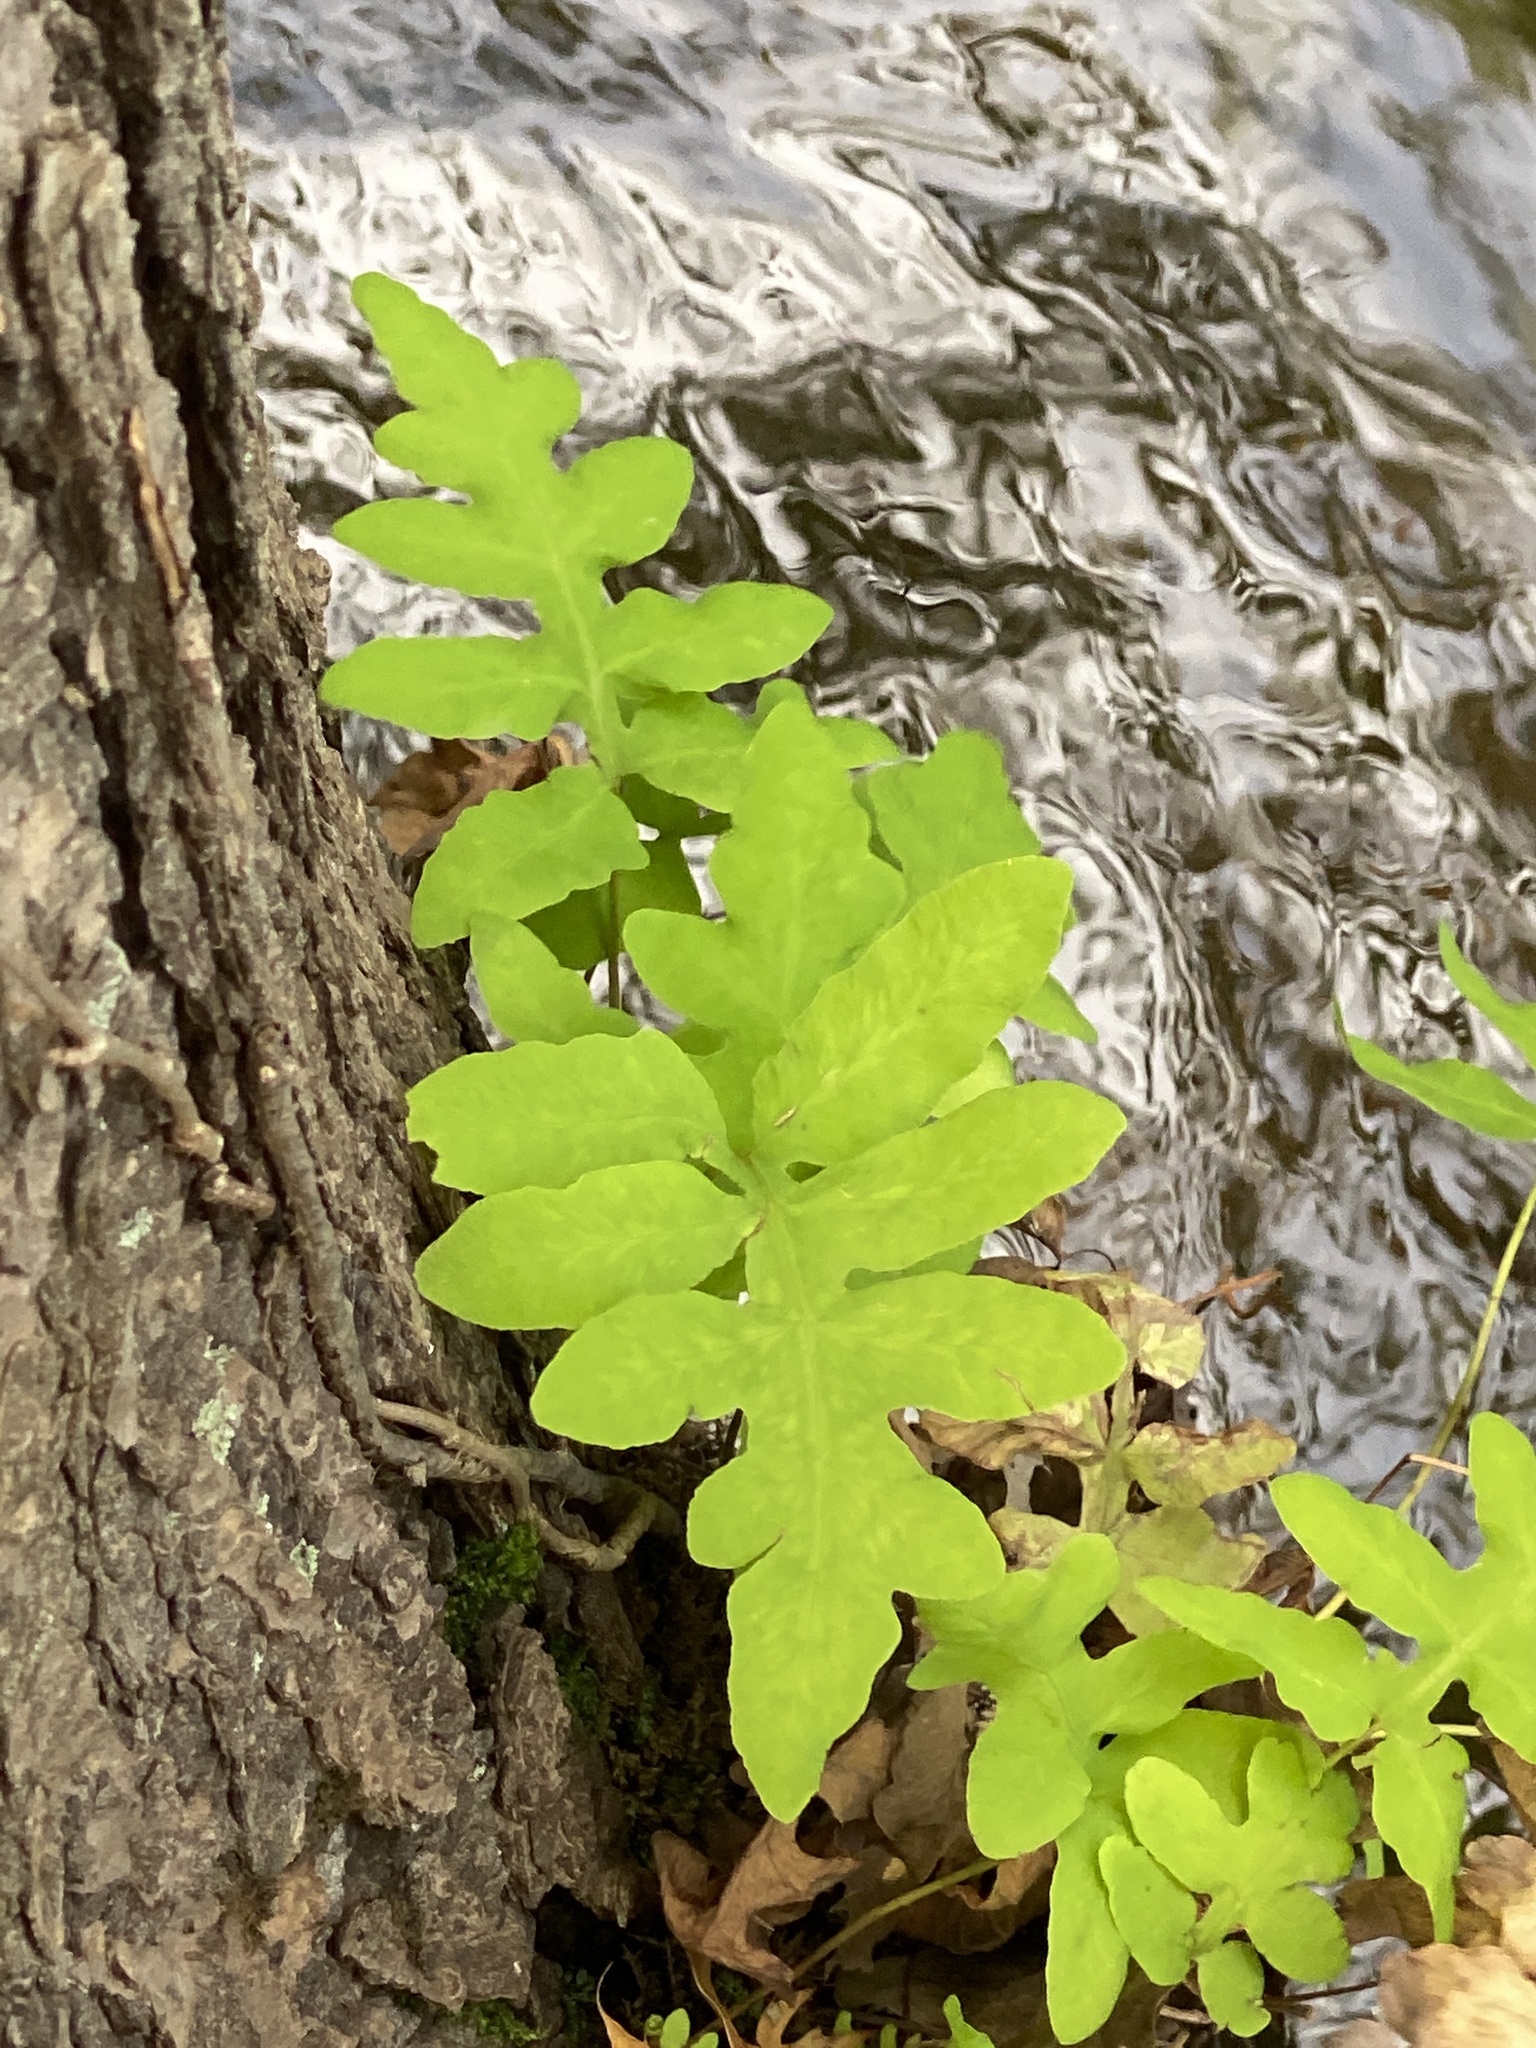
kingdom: Plantae
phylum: Tracheophyta
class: Polypodiopsida
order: Polypodiales
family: Onocleaceae
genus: Onoclea
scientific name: Onoclea sensibilis
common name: Sensitive fern
